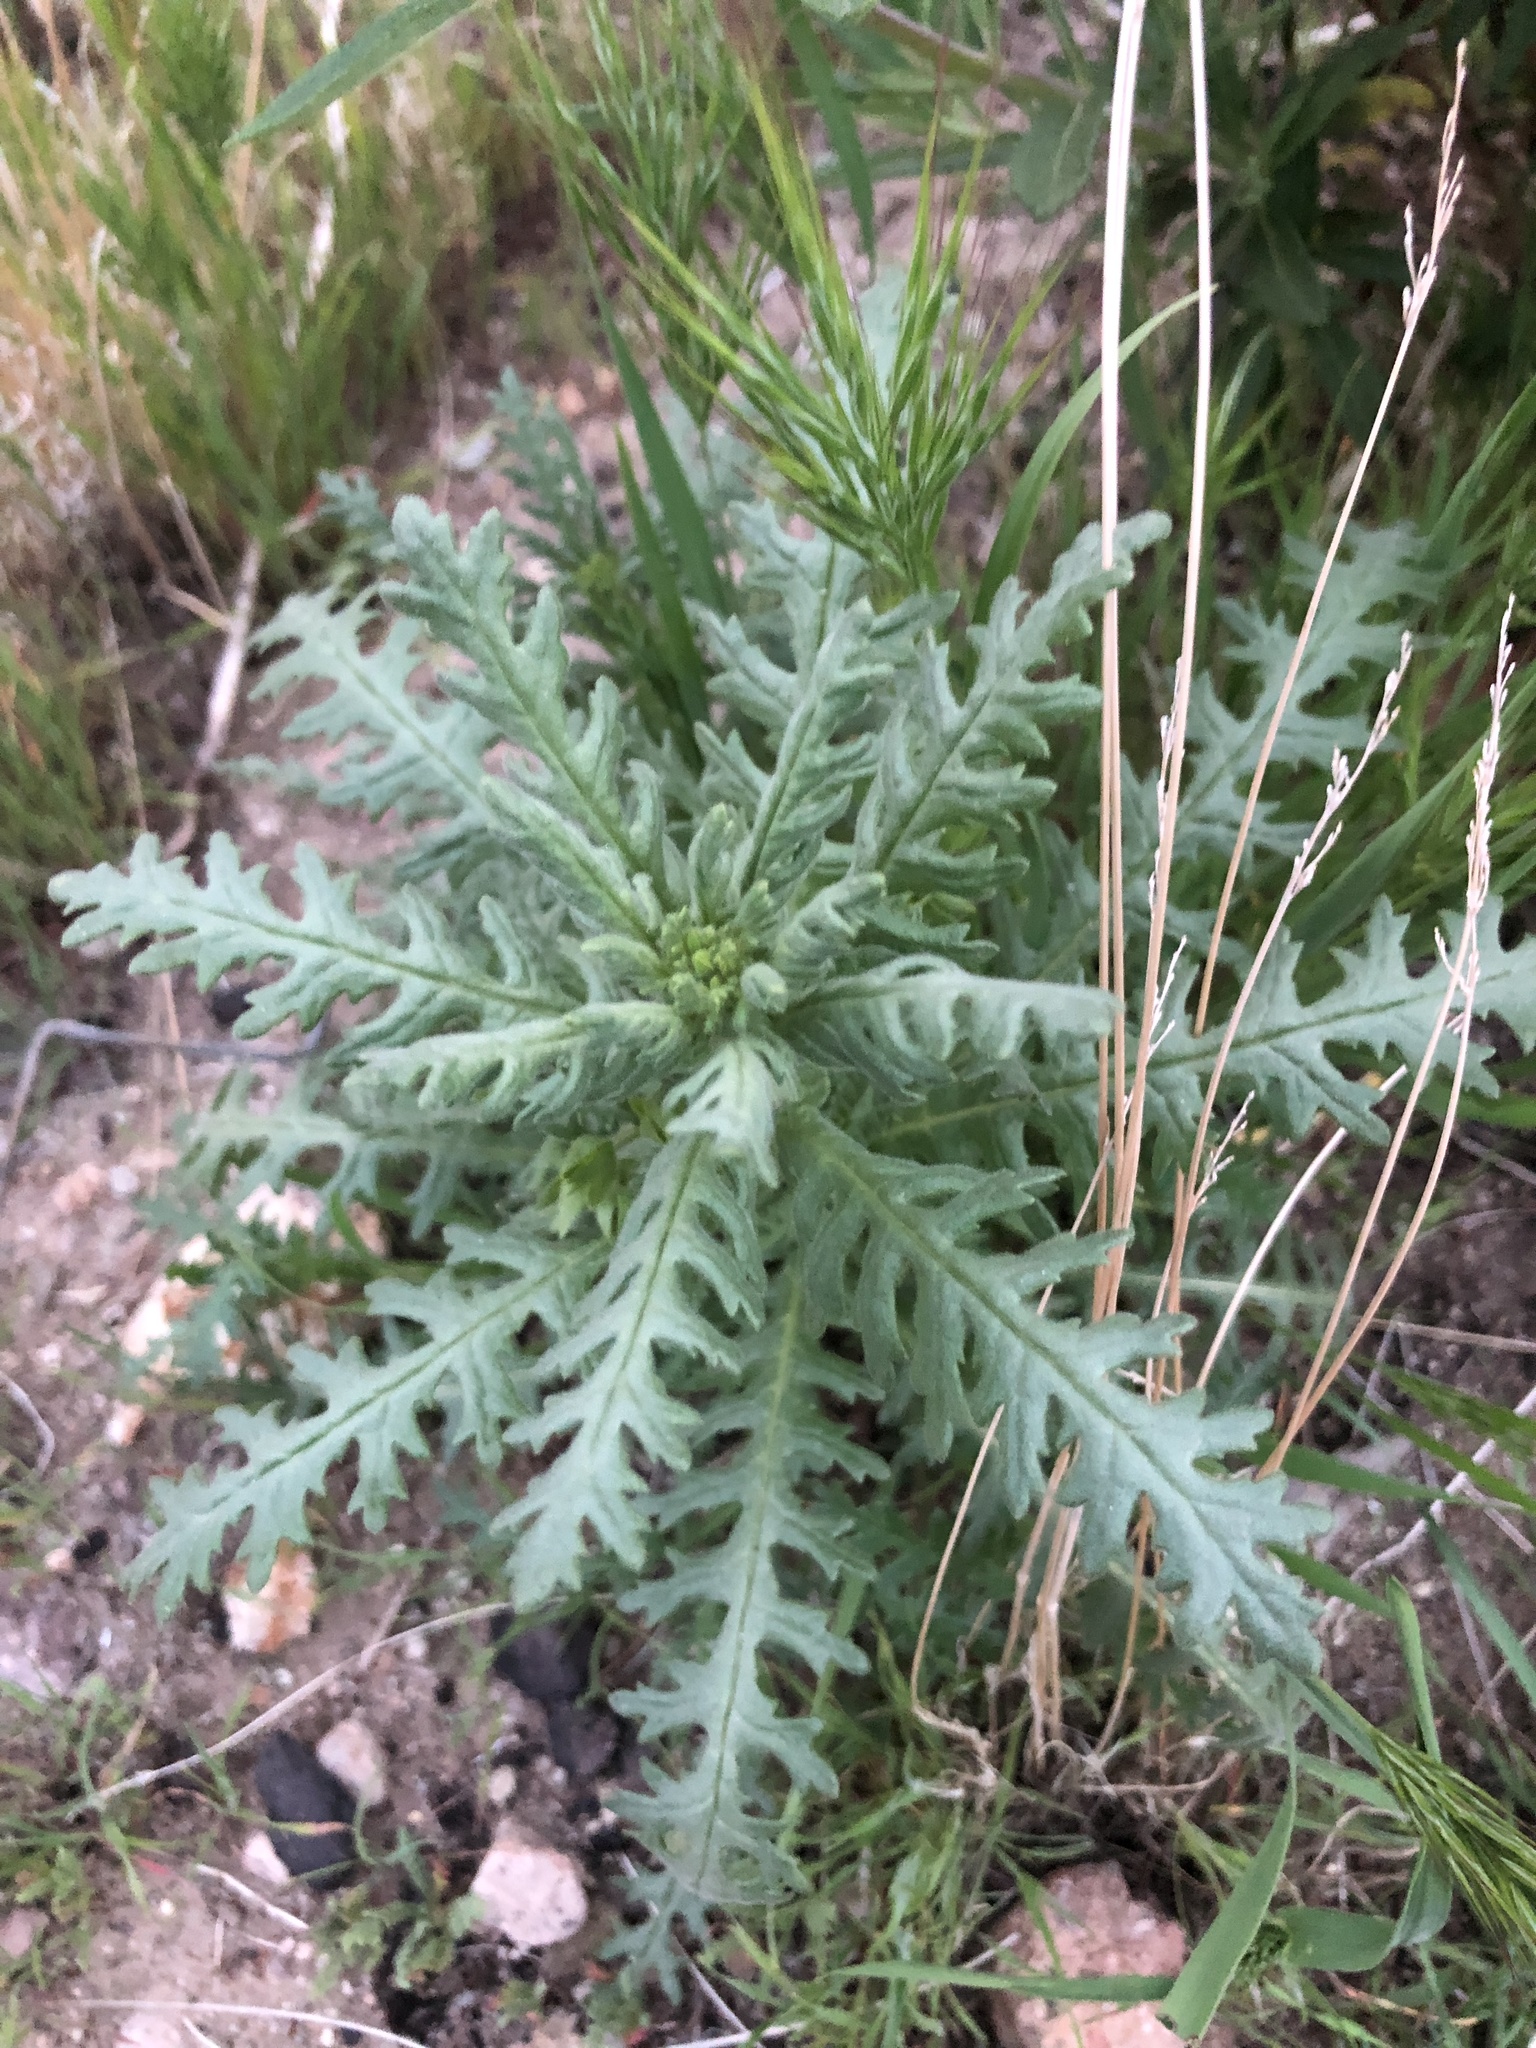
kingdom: Plantae
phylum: Tracheophyta
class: Magnoliopsida
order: Boraginales
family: Hydrophyllaceae
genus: Emmenanthe
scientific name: Emmenanthe penduliflora
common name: Whispering-bells
